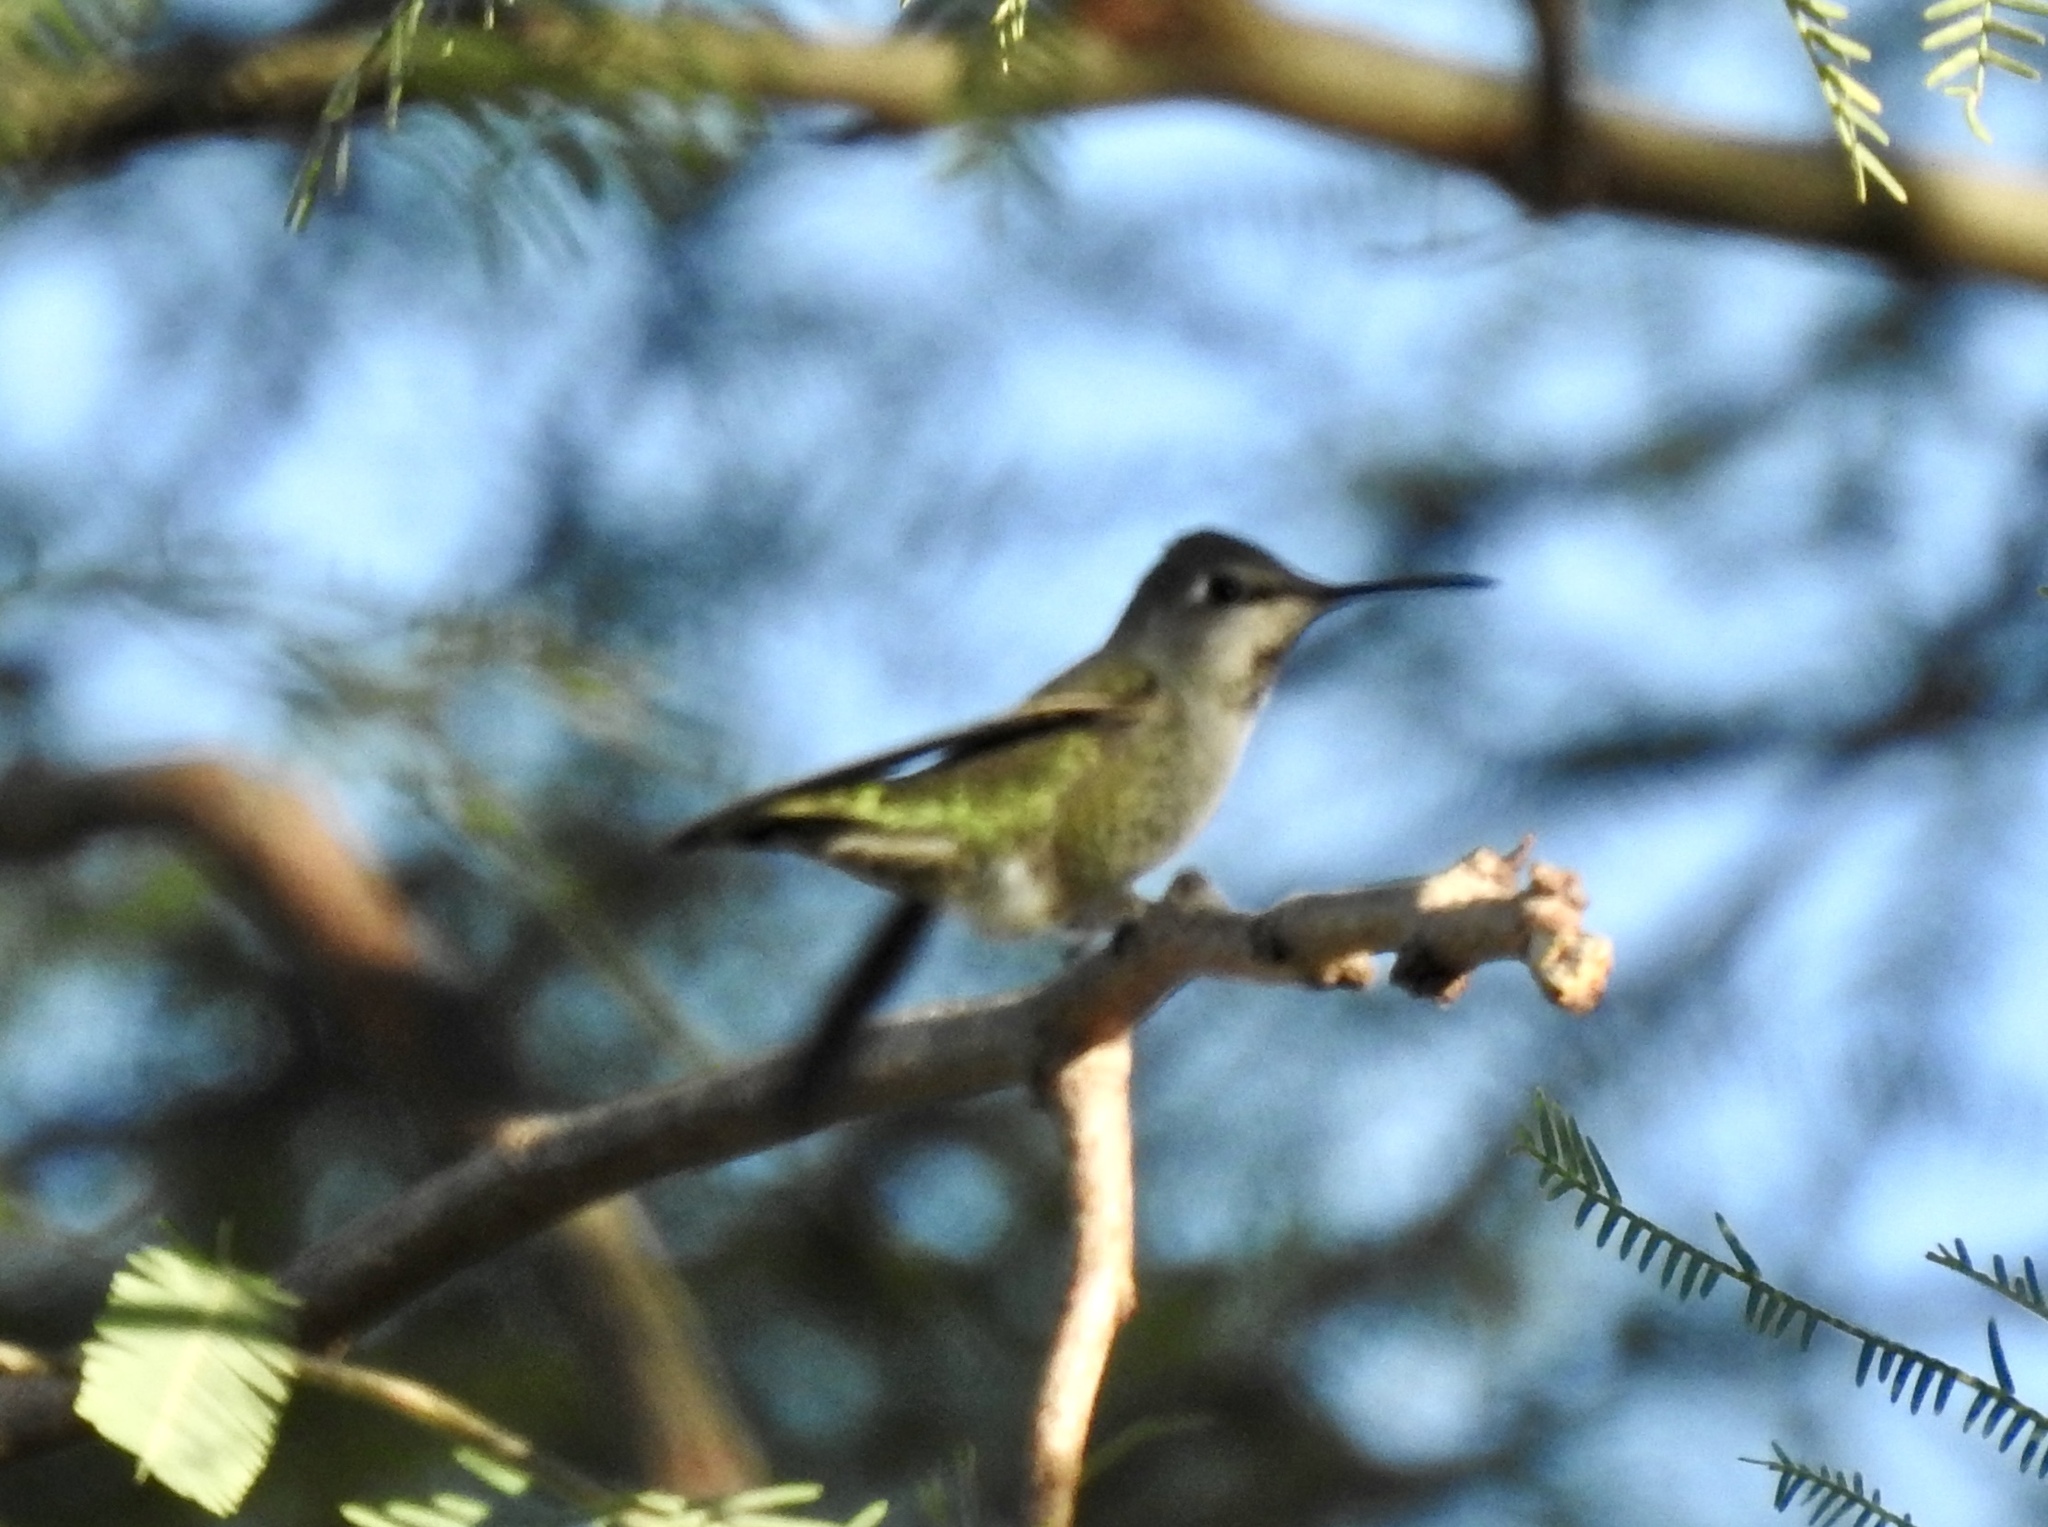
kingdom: Animalia
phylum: Chordata
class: Aves
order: Apodiformes
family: Trochilidae
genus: Calypte
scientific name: Calypte anna
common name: Anna's hummingbird
